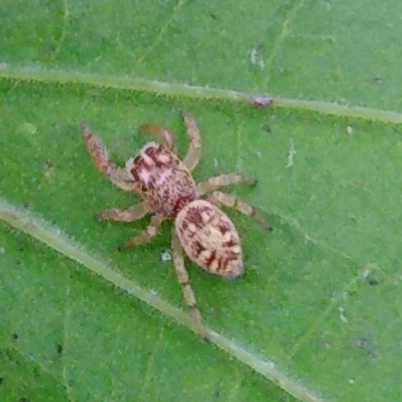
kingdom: Animalia
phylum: Arthropoda
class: Arachnida
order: Araneae
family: Salticidae
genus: Macaroeris
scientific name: Macaroeris nidicolens
